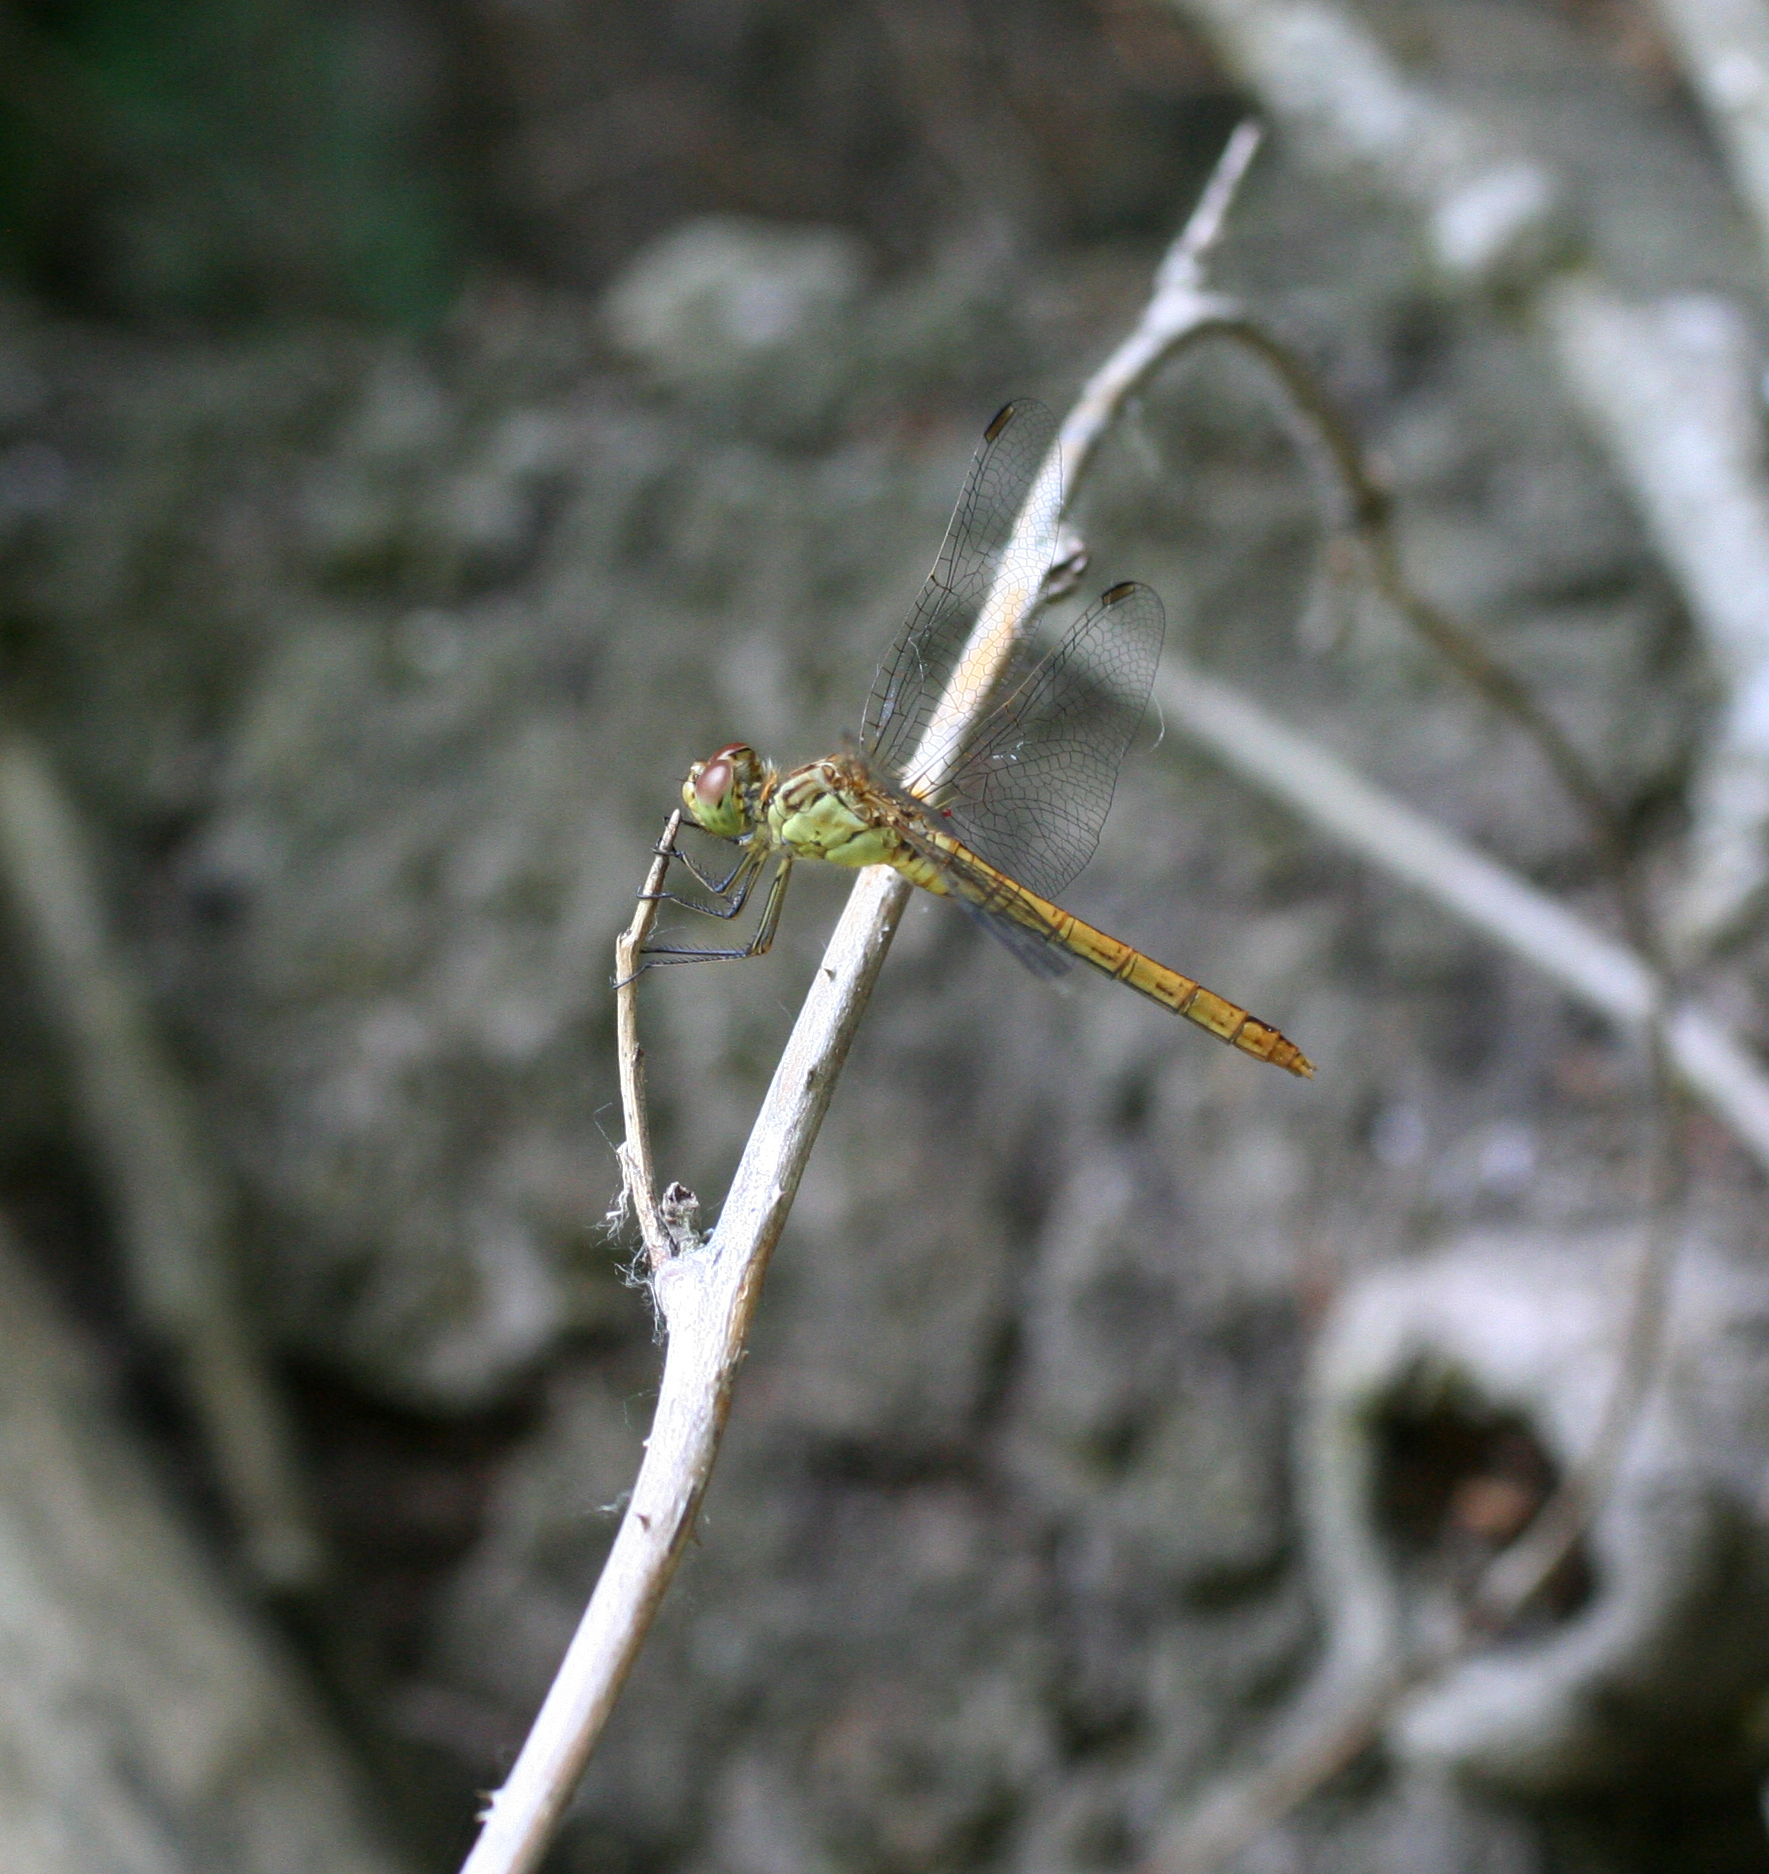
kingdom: Animalia
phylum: Arthropoda
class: Insecta
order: Odonata
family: Libellulidae
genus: Sympetrum
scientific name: Sympetrum meridionale
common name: Southern darter
